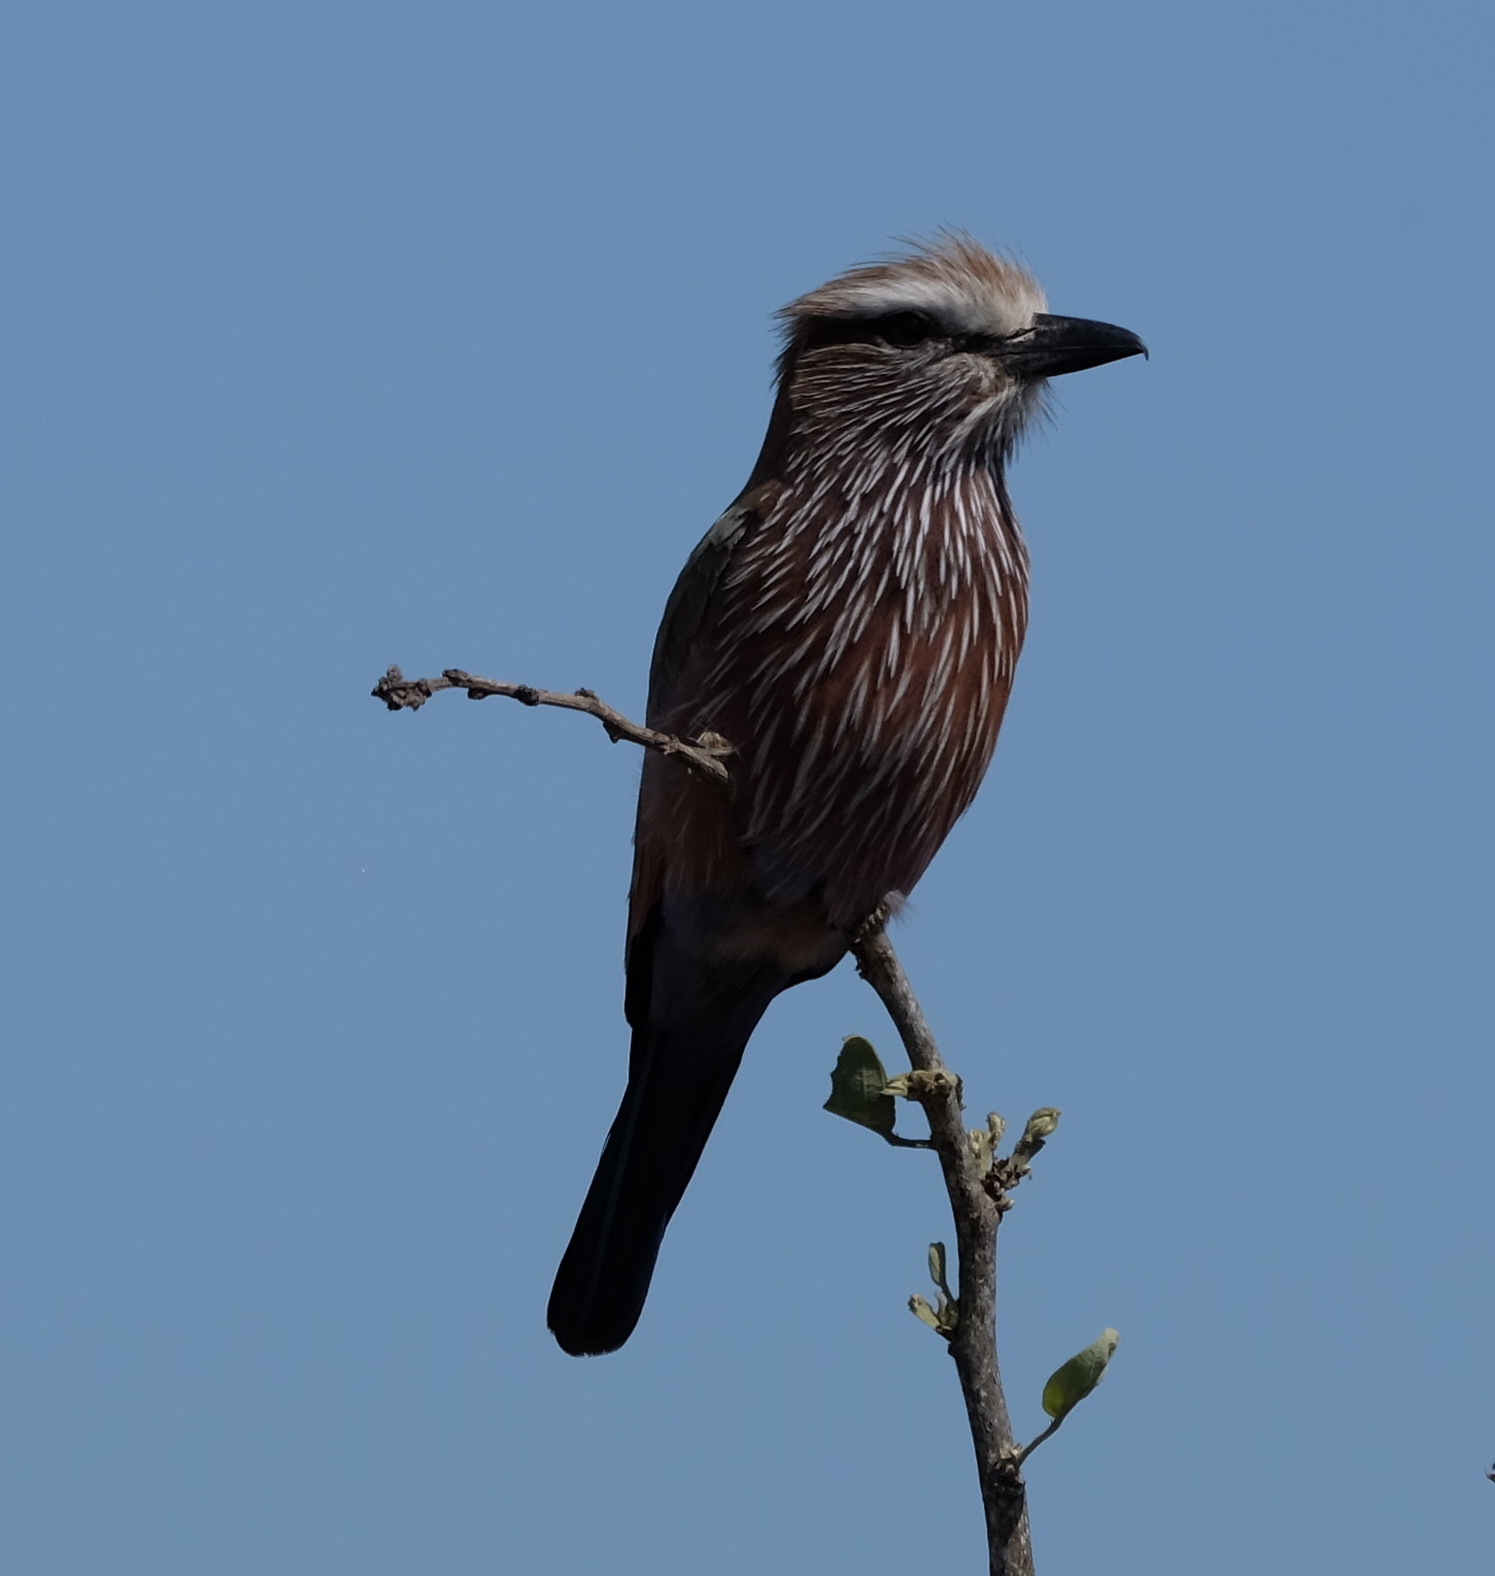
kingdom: Animalia
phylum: Chordata
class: Aves
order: Coraciiformes
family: Coraciidae
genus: Coracias
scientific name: Coracias naevius
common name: Purple roller
